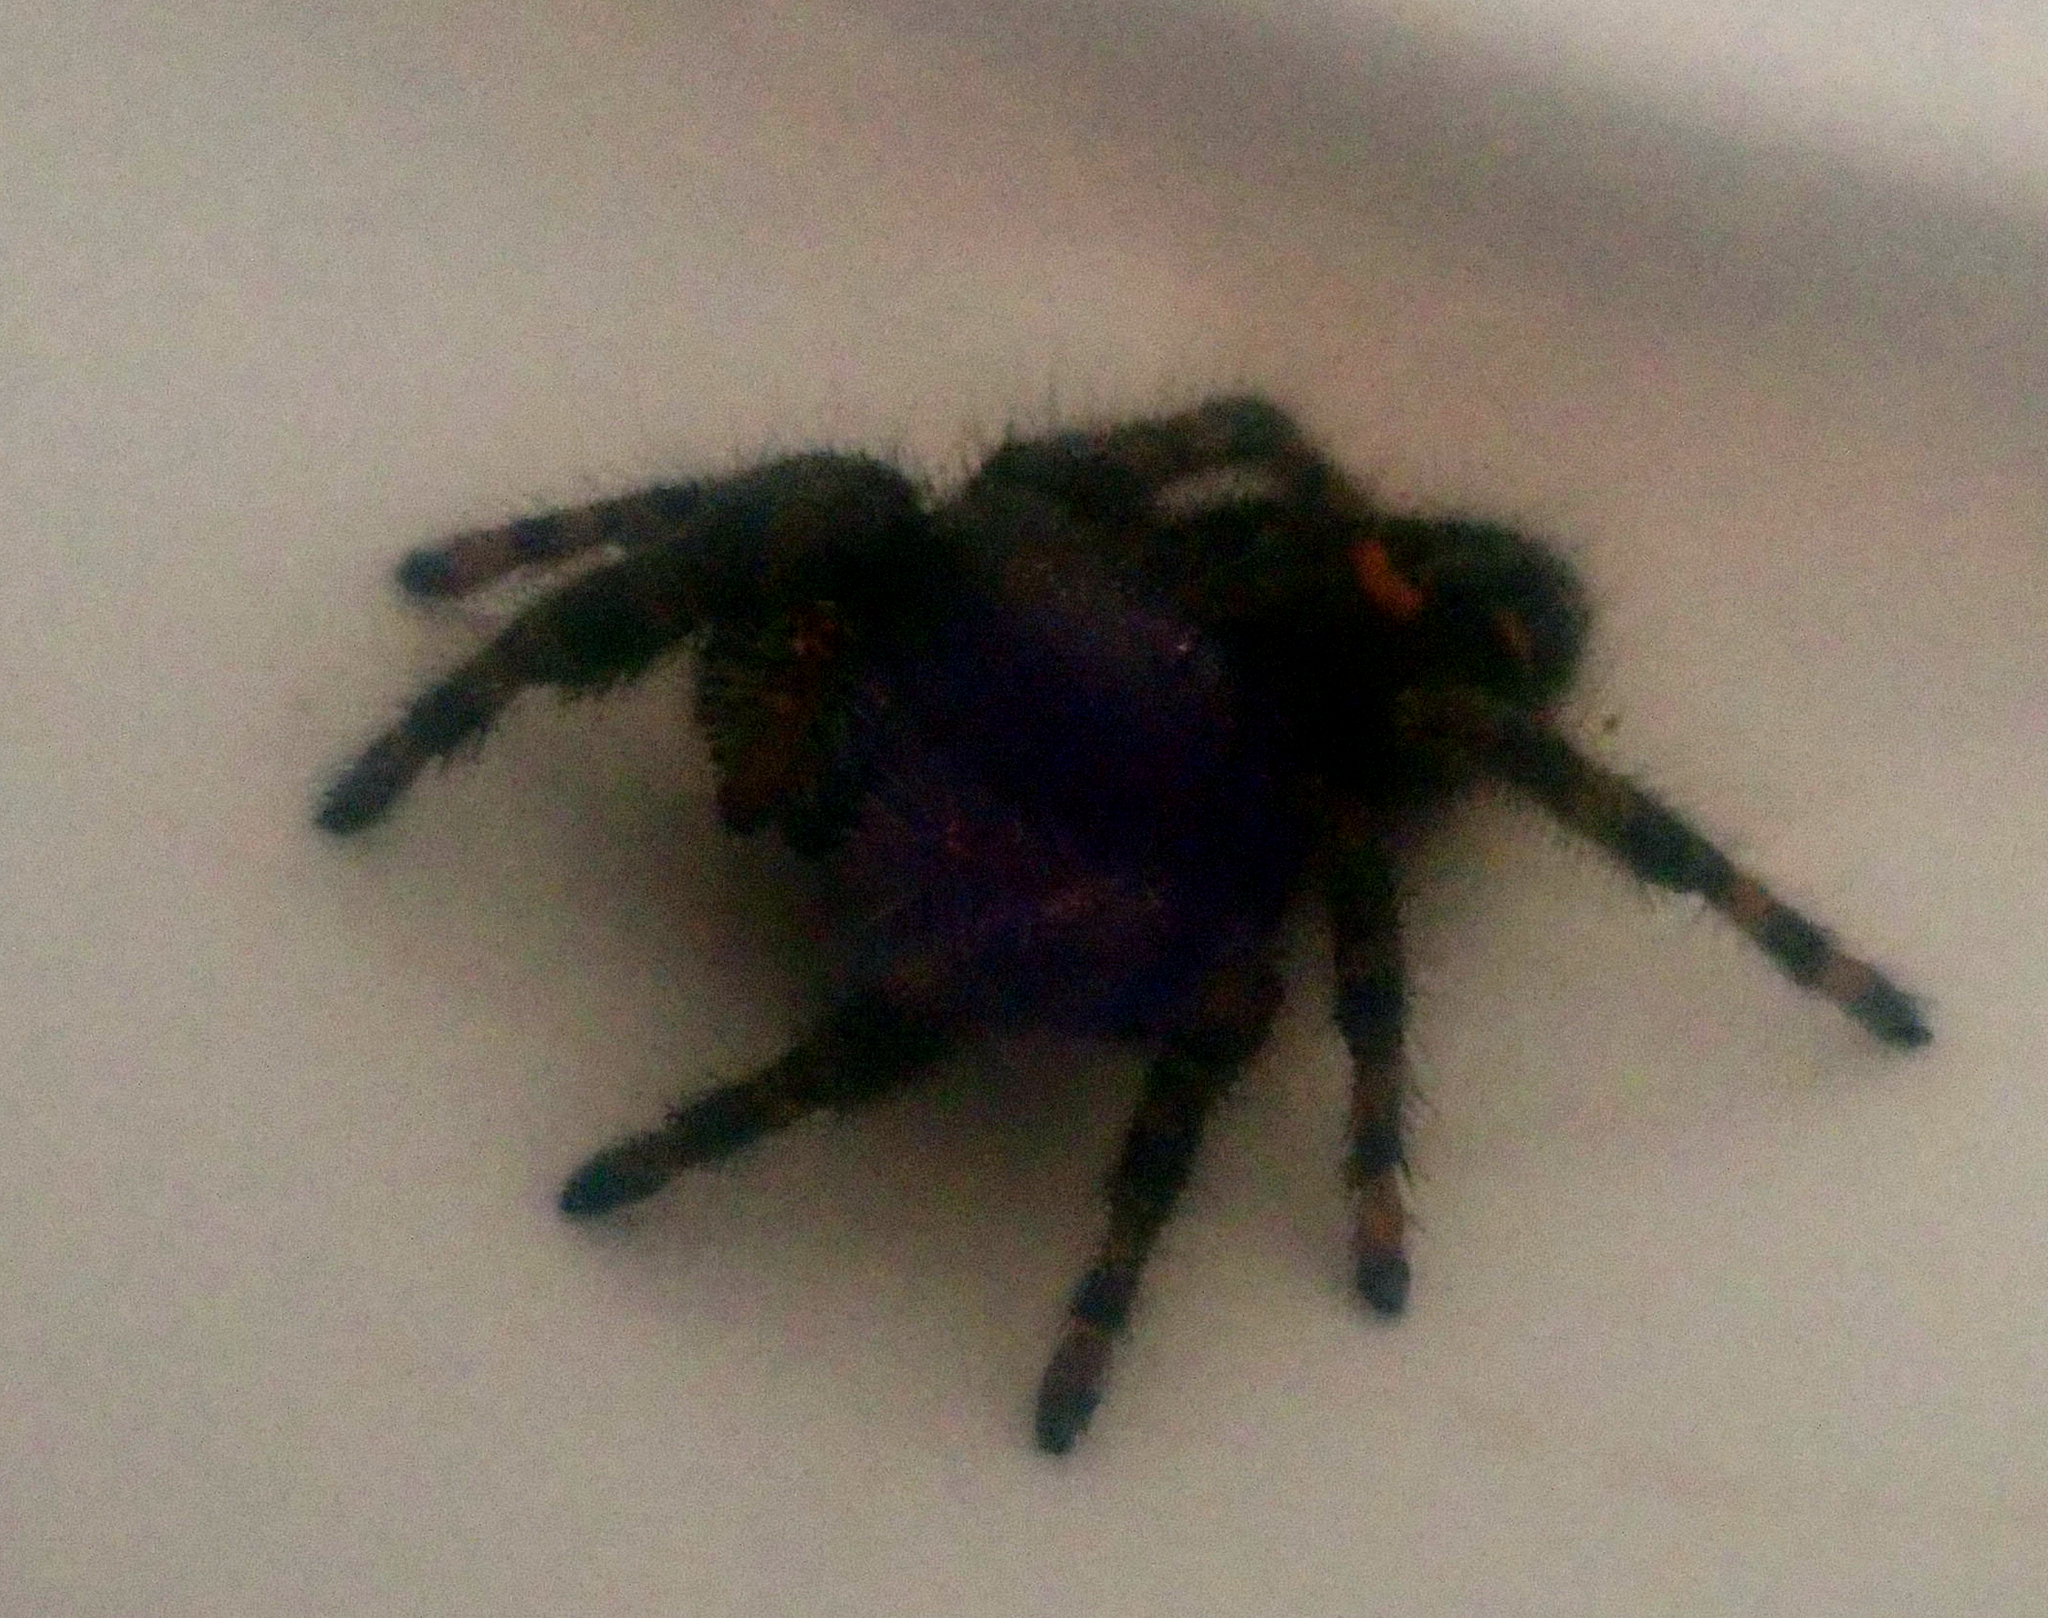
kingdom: Animalia
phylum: Arthropoda
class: Arachnida
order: Araneae
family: Salticidae
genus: Phidippus
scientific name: Phidippus audax
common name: Bold jumper
